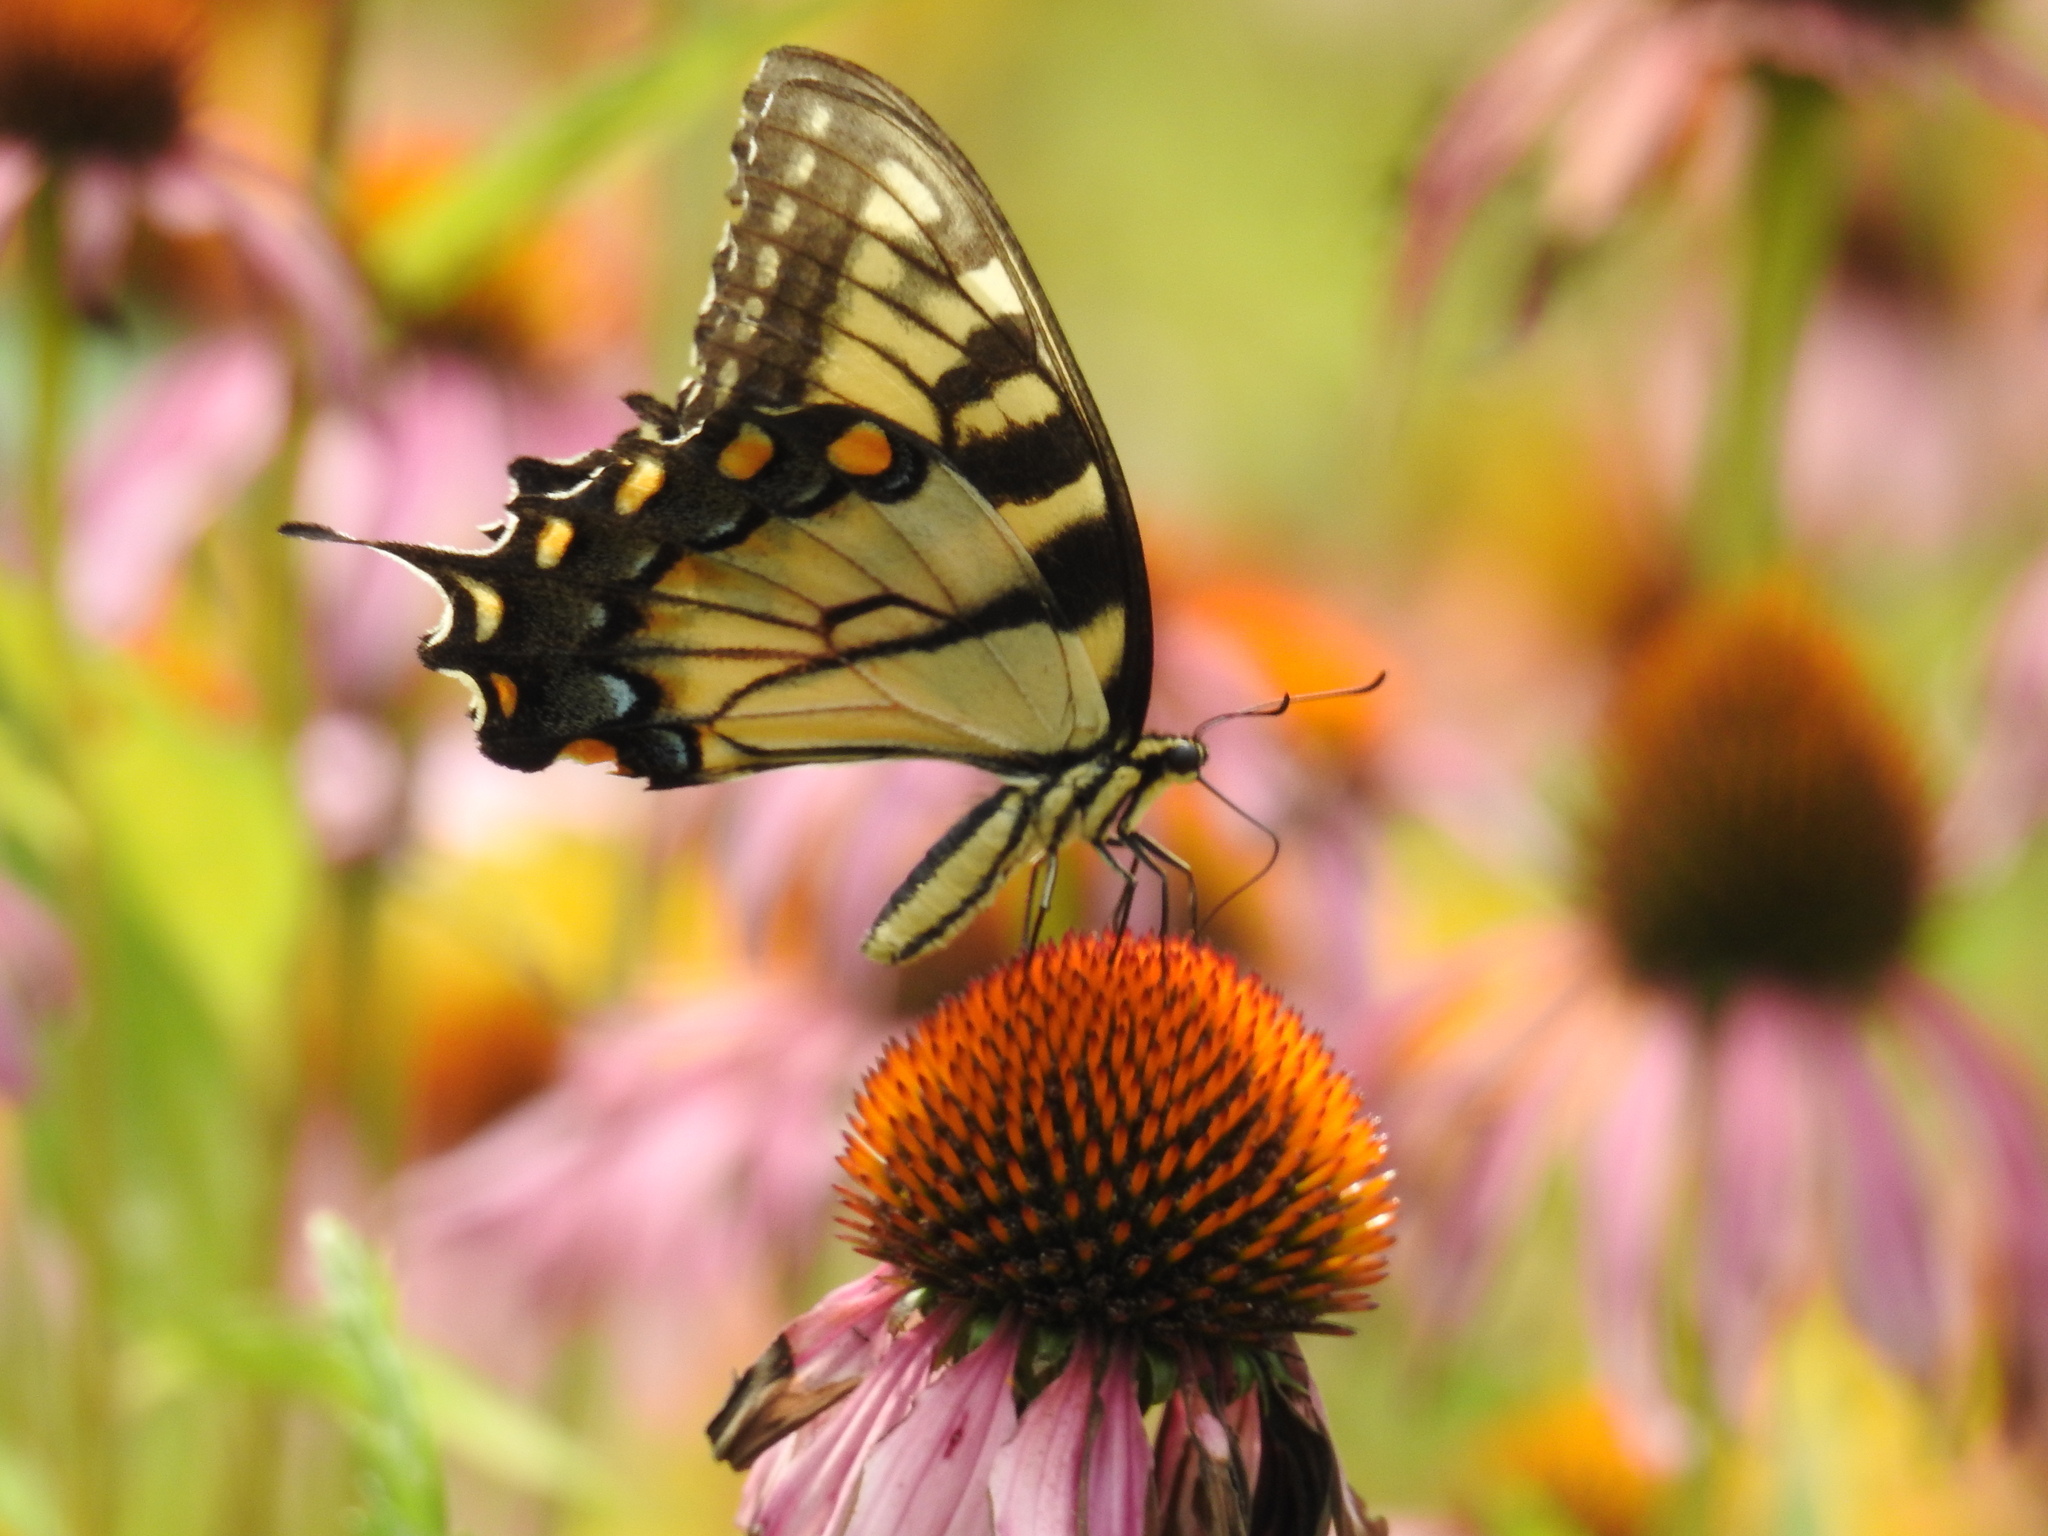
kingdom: Animalia
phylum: Arthropoda
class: Insecta
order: Lepidoptera
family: Papilionidae
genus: Papilio
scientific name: Papilio glaucus
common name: Tiger swallowtail
